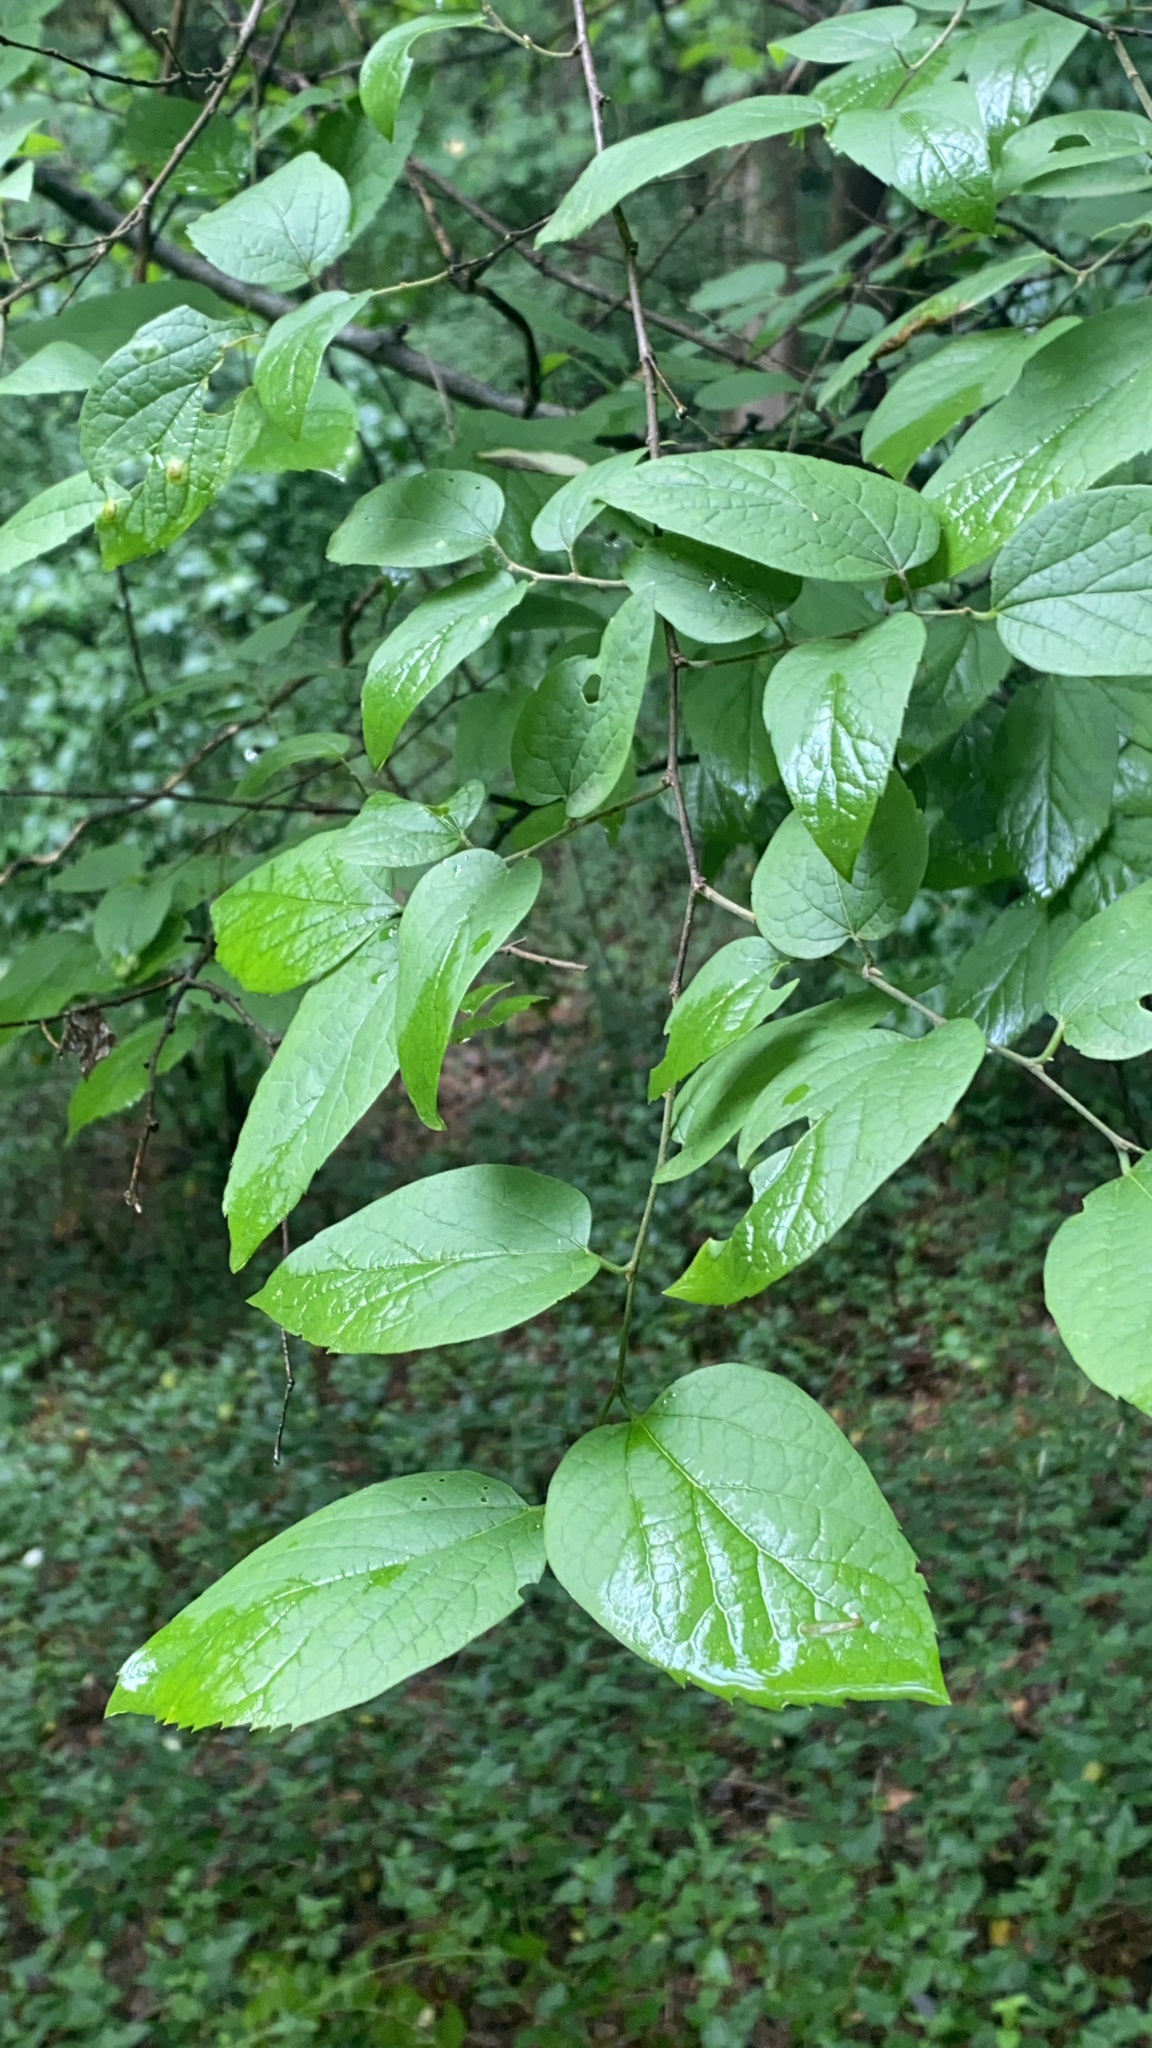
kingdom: Plantae
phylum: Tracheophyta
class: Magnoliopsida
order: Rosales
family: Cannabaceae
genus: Celtis
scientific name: Celtis laevigata
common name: Sugarberry
